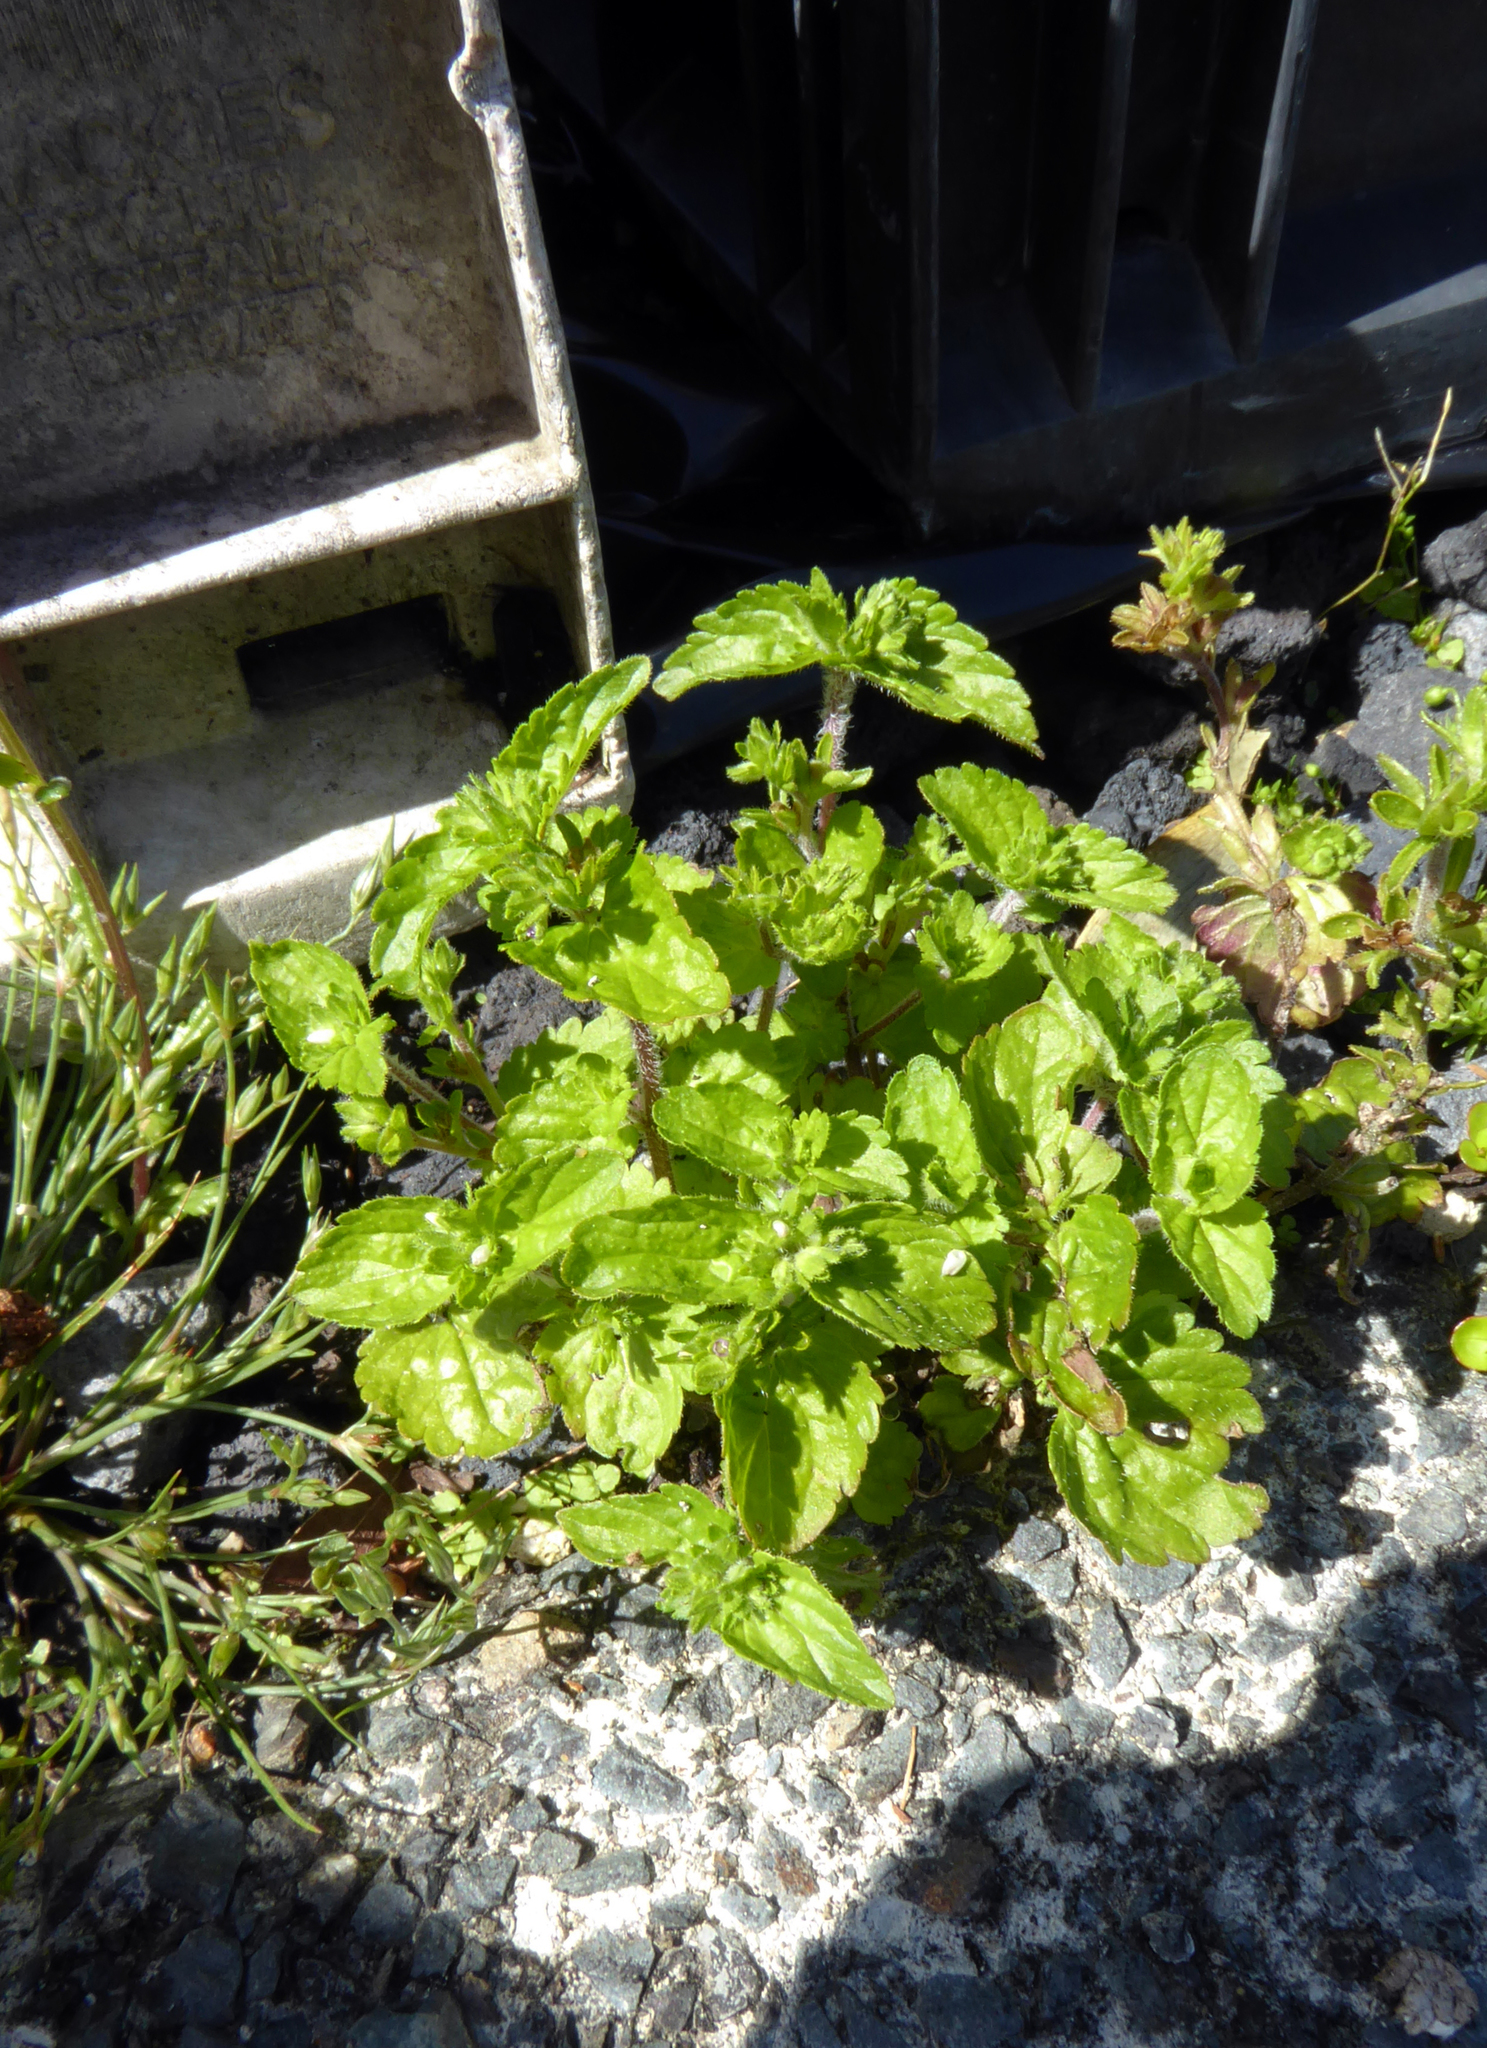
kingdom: Plantae
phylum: Tracheophyta
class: Magnoliopsida
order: Lamiales
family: Plantaginaceae
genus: Veronica
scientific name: Veronica javanica
